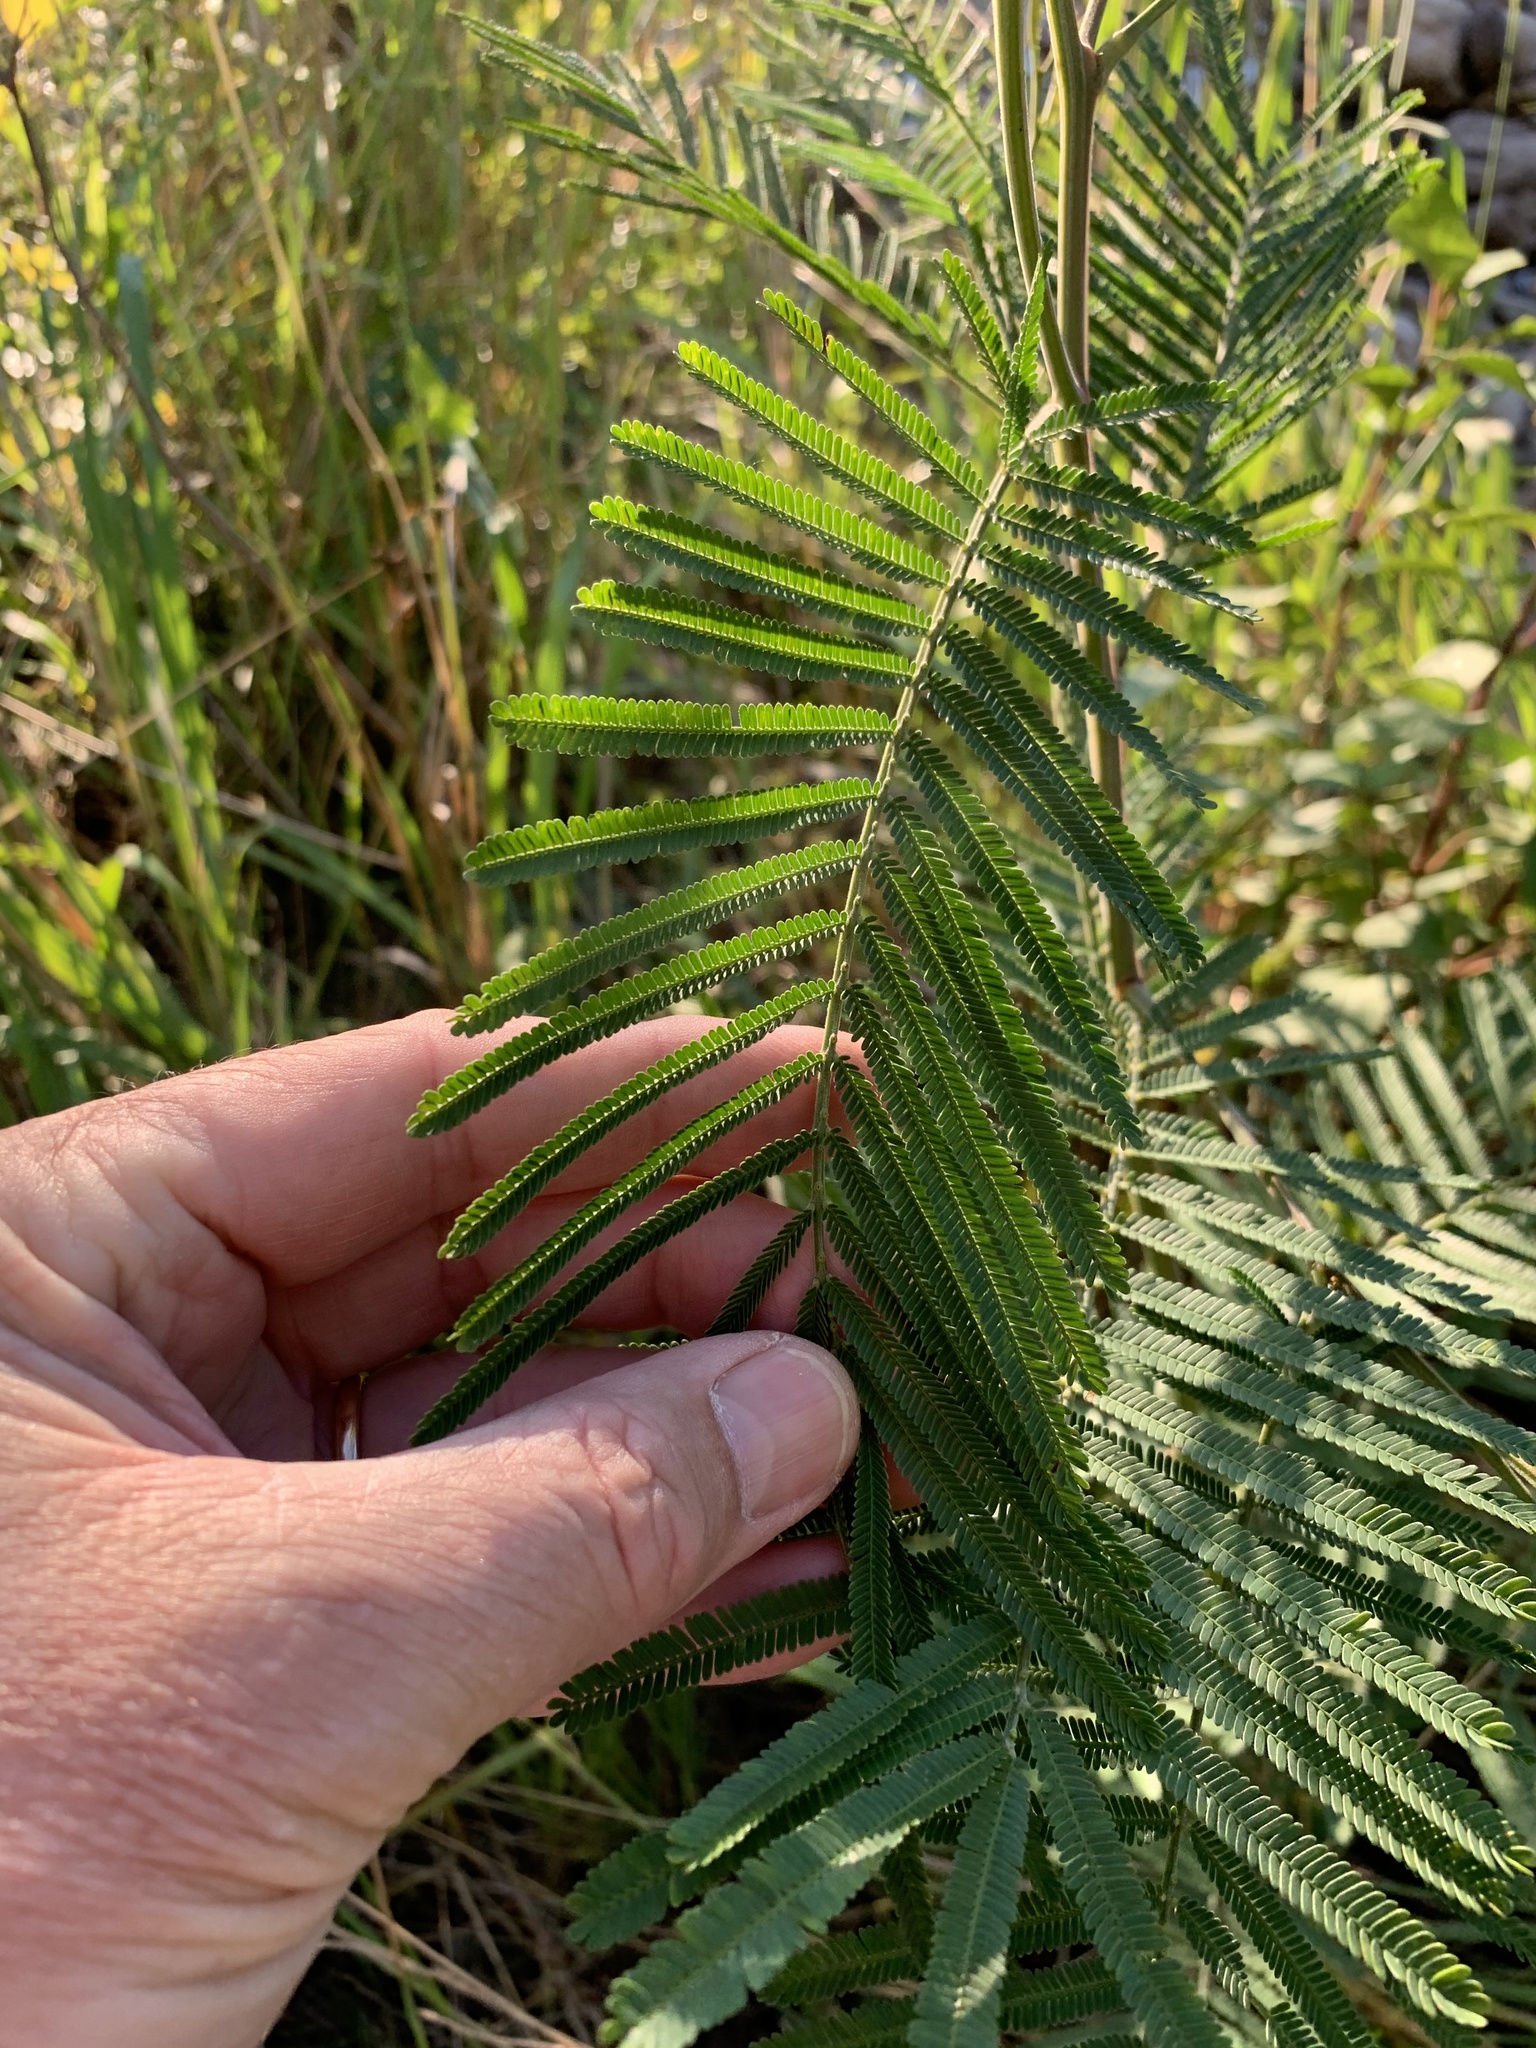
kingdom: Plantae
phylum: Tracheophyta
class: Magnoliopsida
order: Fabales
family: Fabaceae
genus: Acacia
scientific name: Acacia mearnsii
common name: Black wattle
